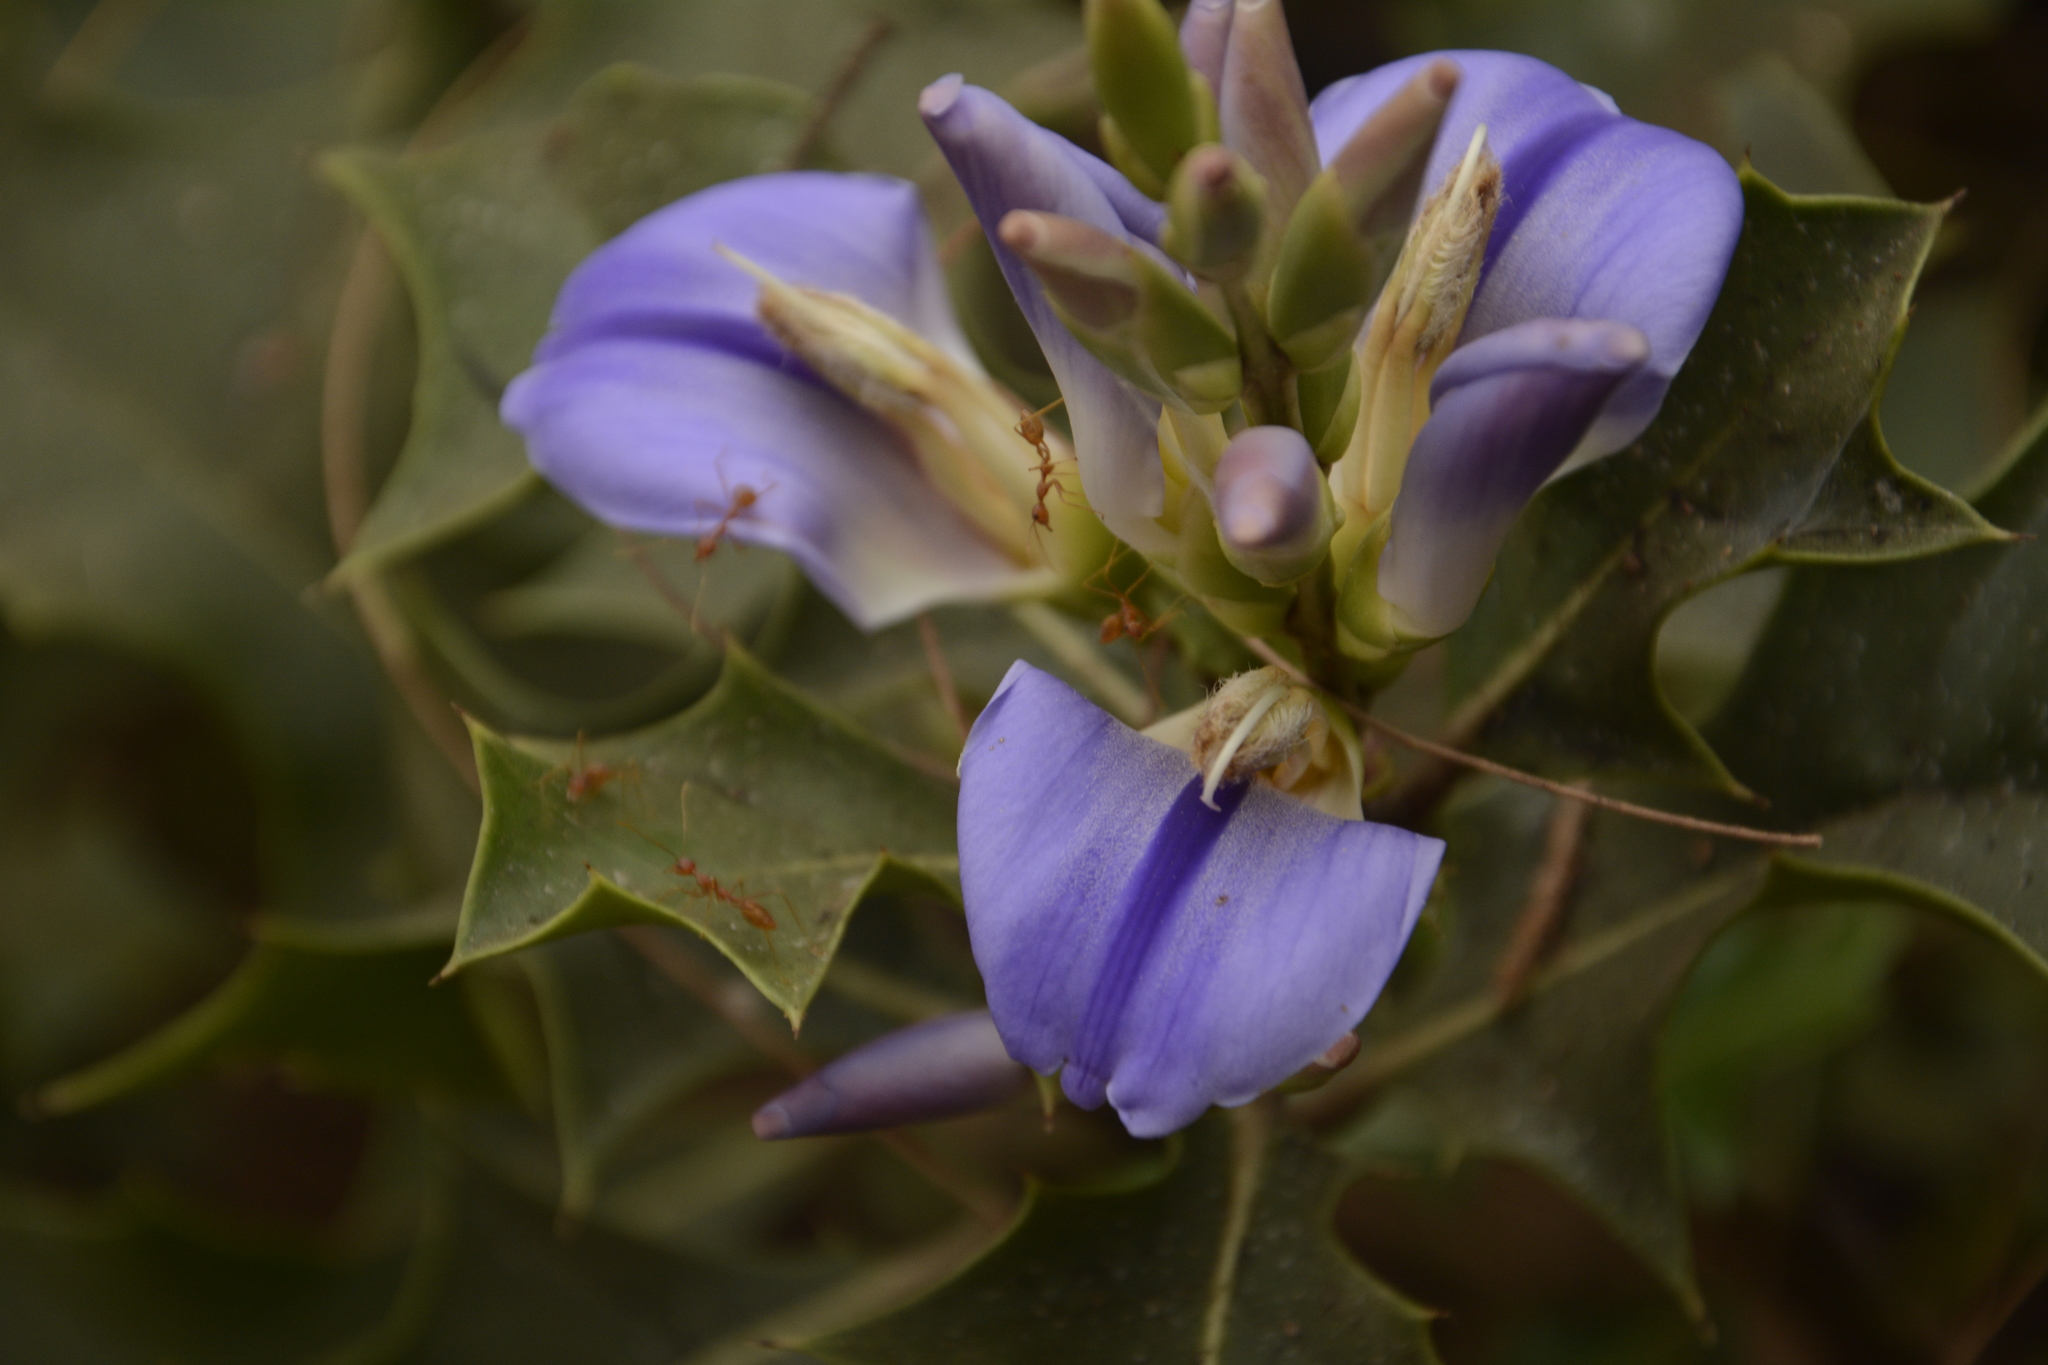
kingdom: Plantae
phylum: Tracheophyta
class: Magnoliopsida
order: Lamiales
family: Acanthaceae
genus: Acanthus
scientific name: Acanthus ilicifolius
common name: Holy mangrove
